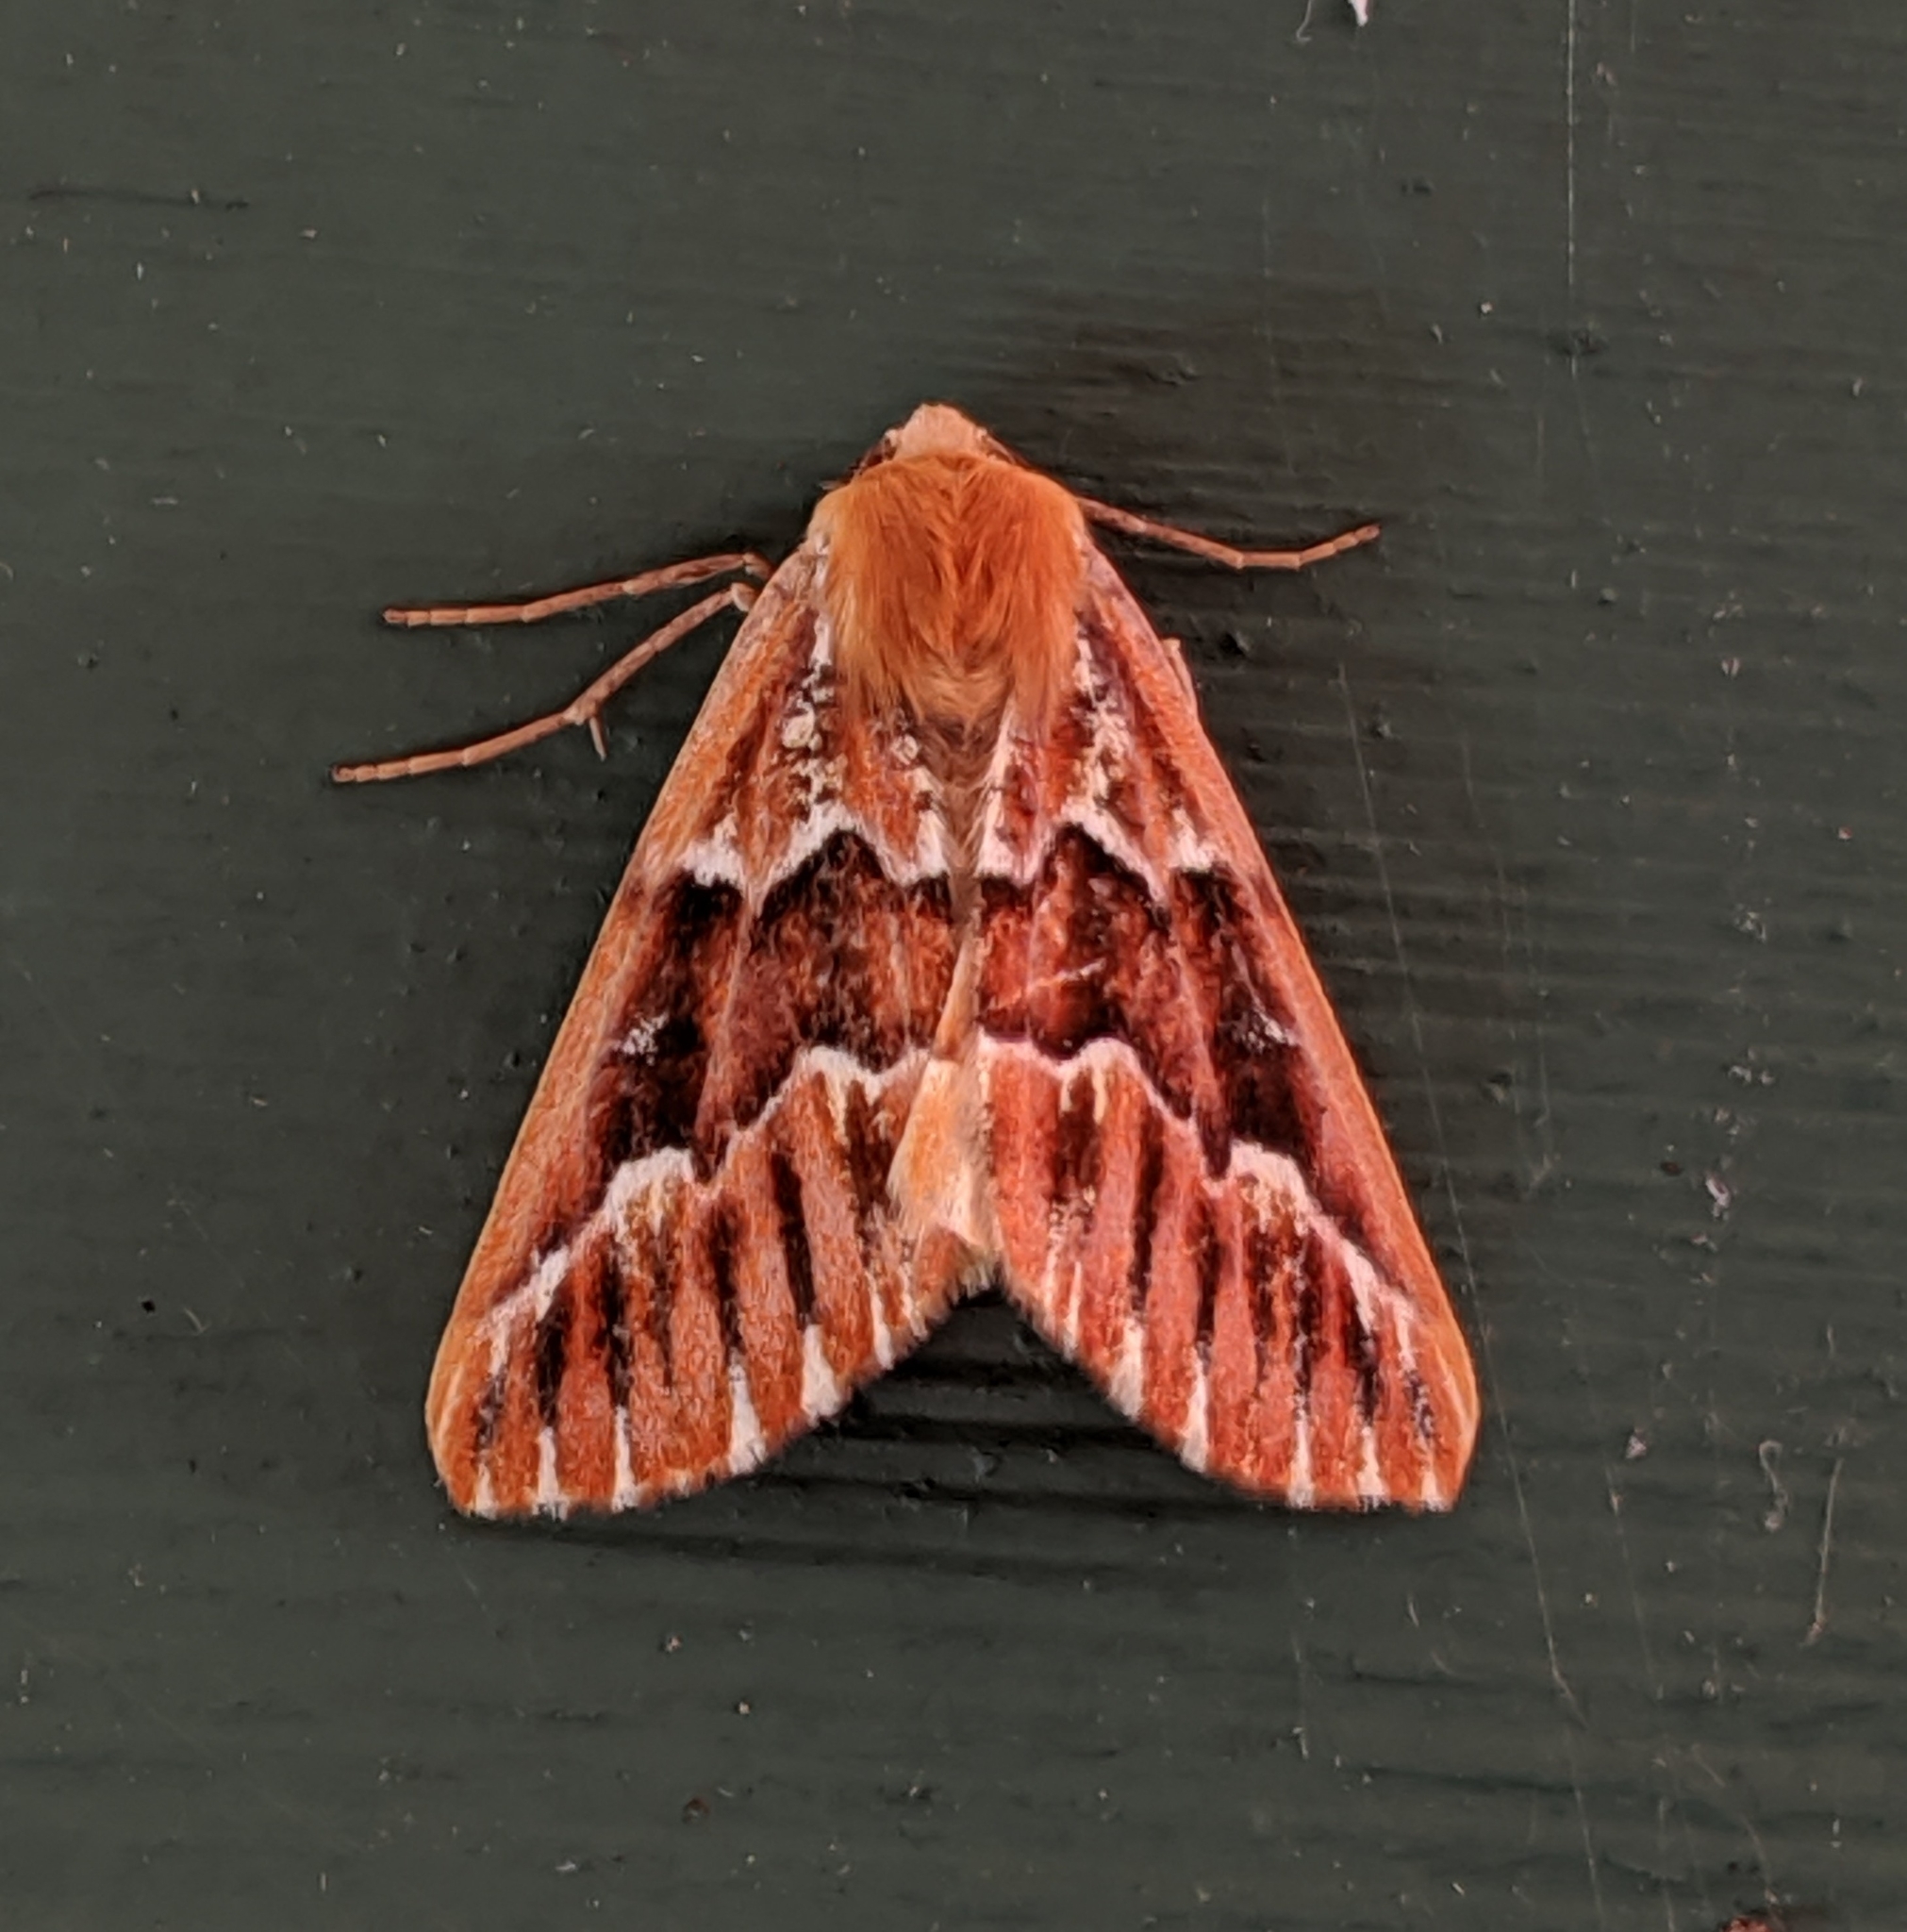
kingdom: Animalia
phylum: Arthropoda
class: Insecta
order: Lepidoptera
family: Geometridae
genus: Caripeta
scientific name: Caripeta aequaliaria
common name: Red girdle moth
